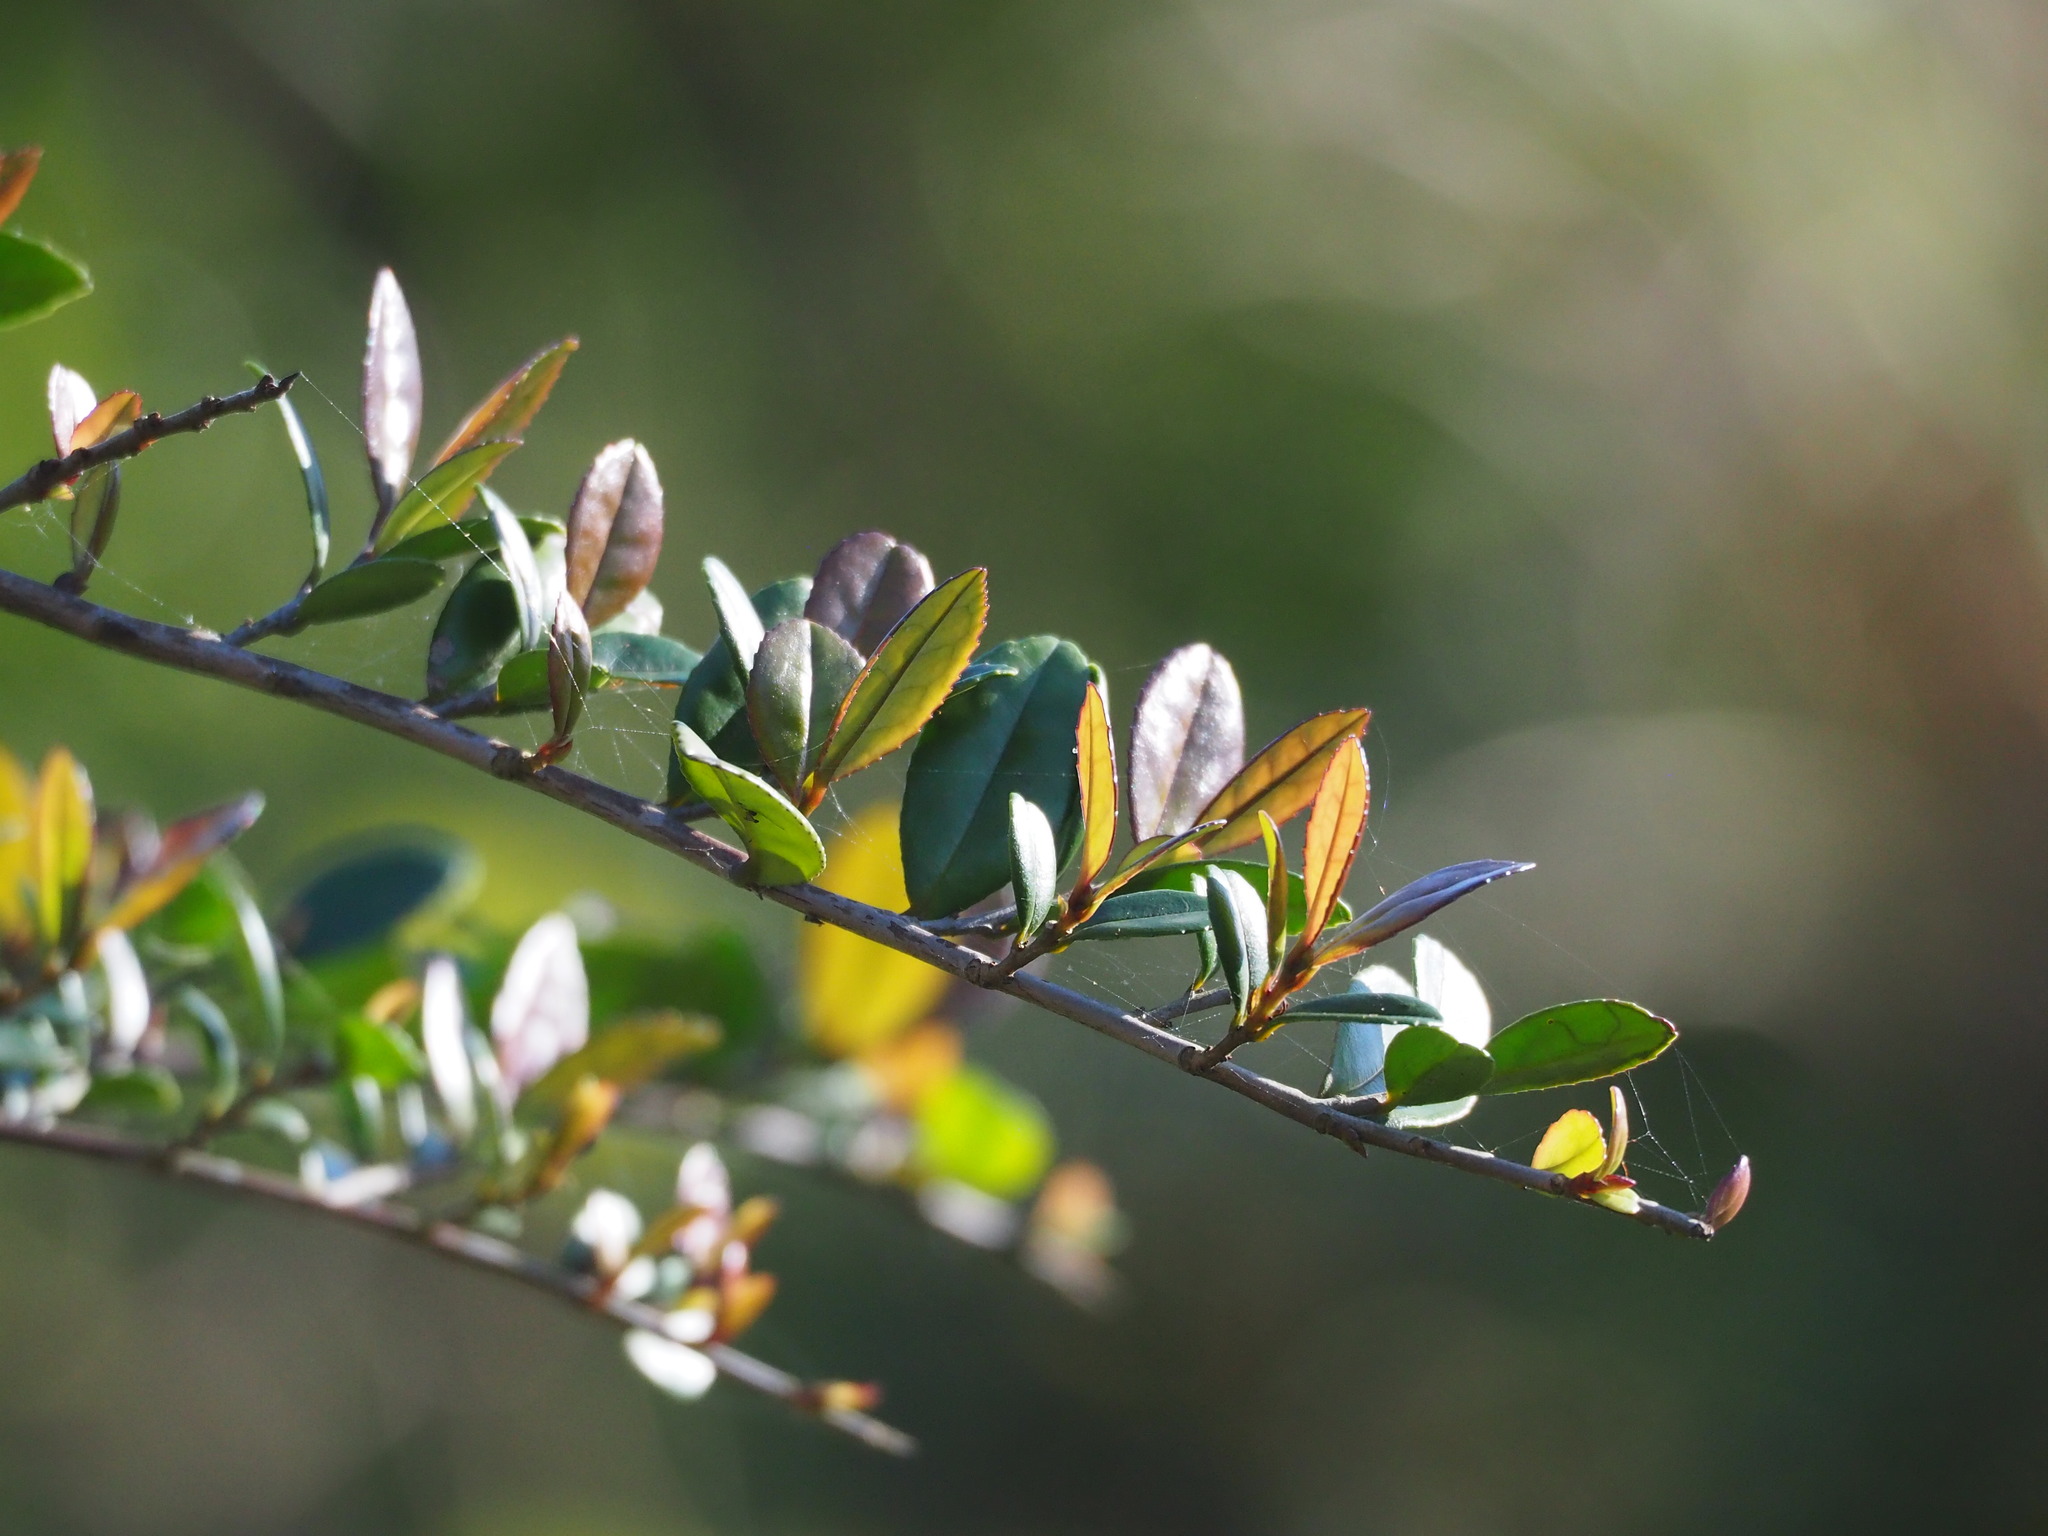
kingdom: Plantae
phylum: Tracheophyta
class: Magnoliopsida
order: Ericales
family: Pentaphylacaceae
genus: Eurya
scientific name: Eurya emarginata
